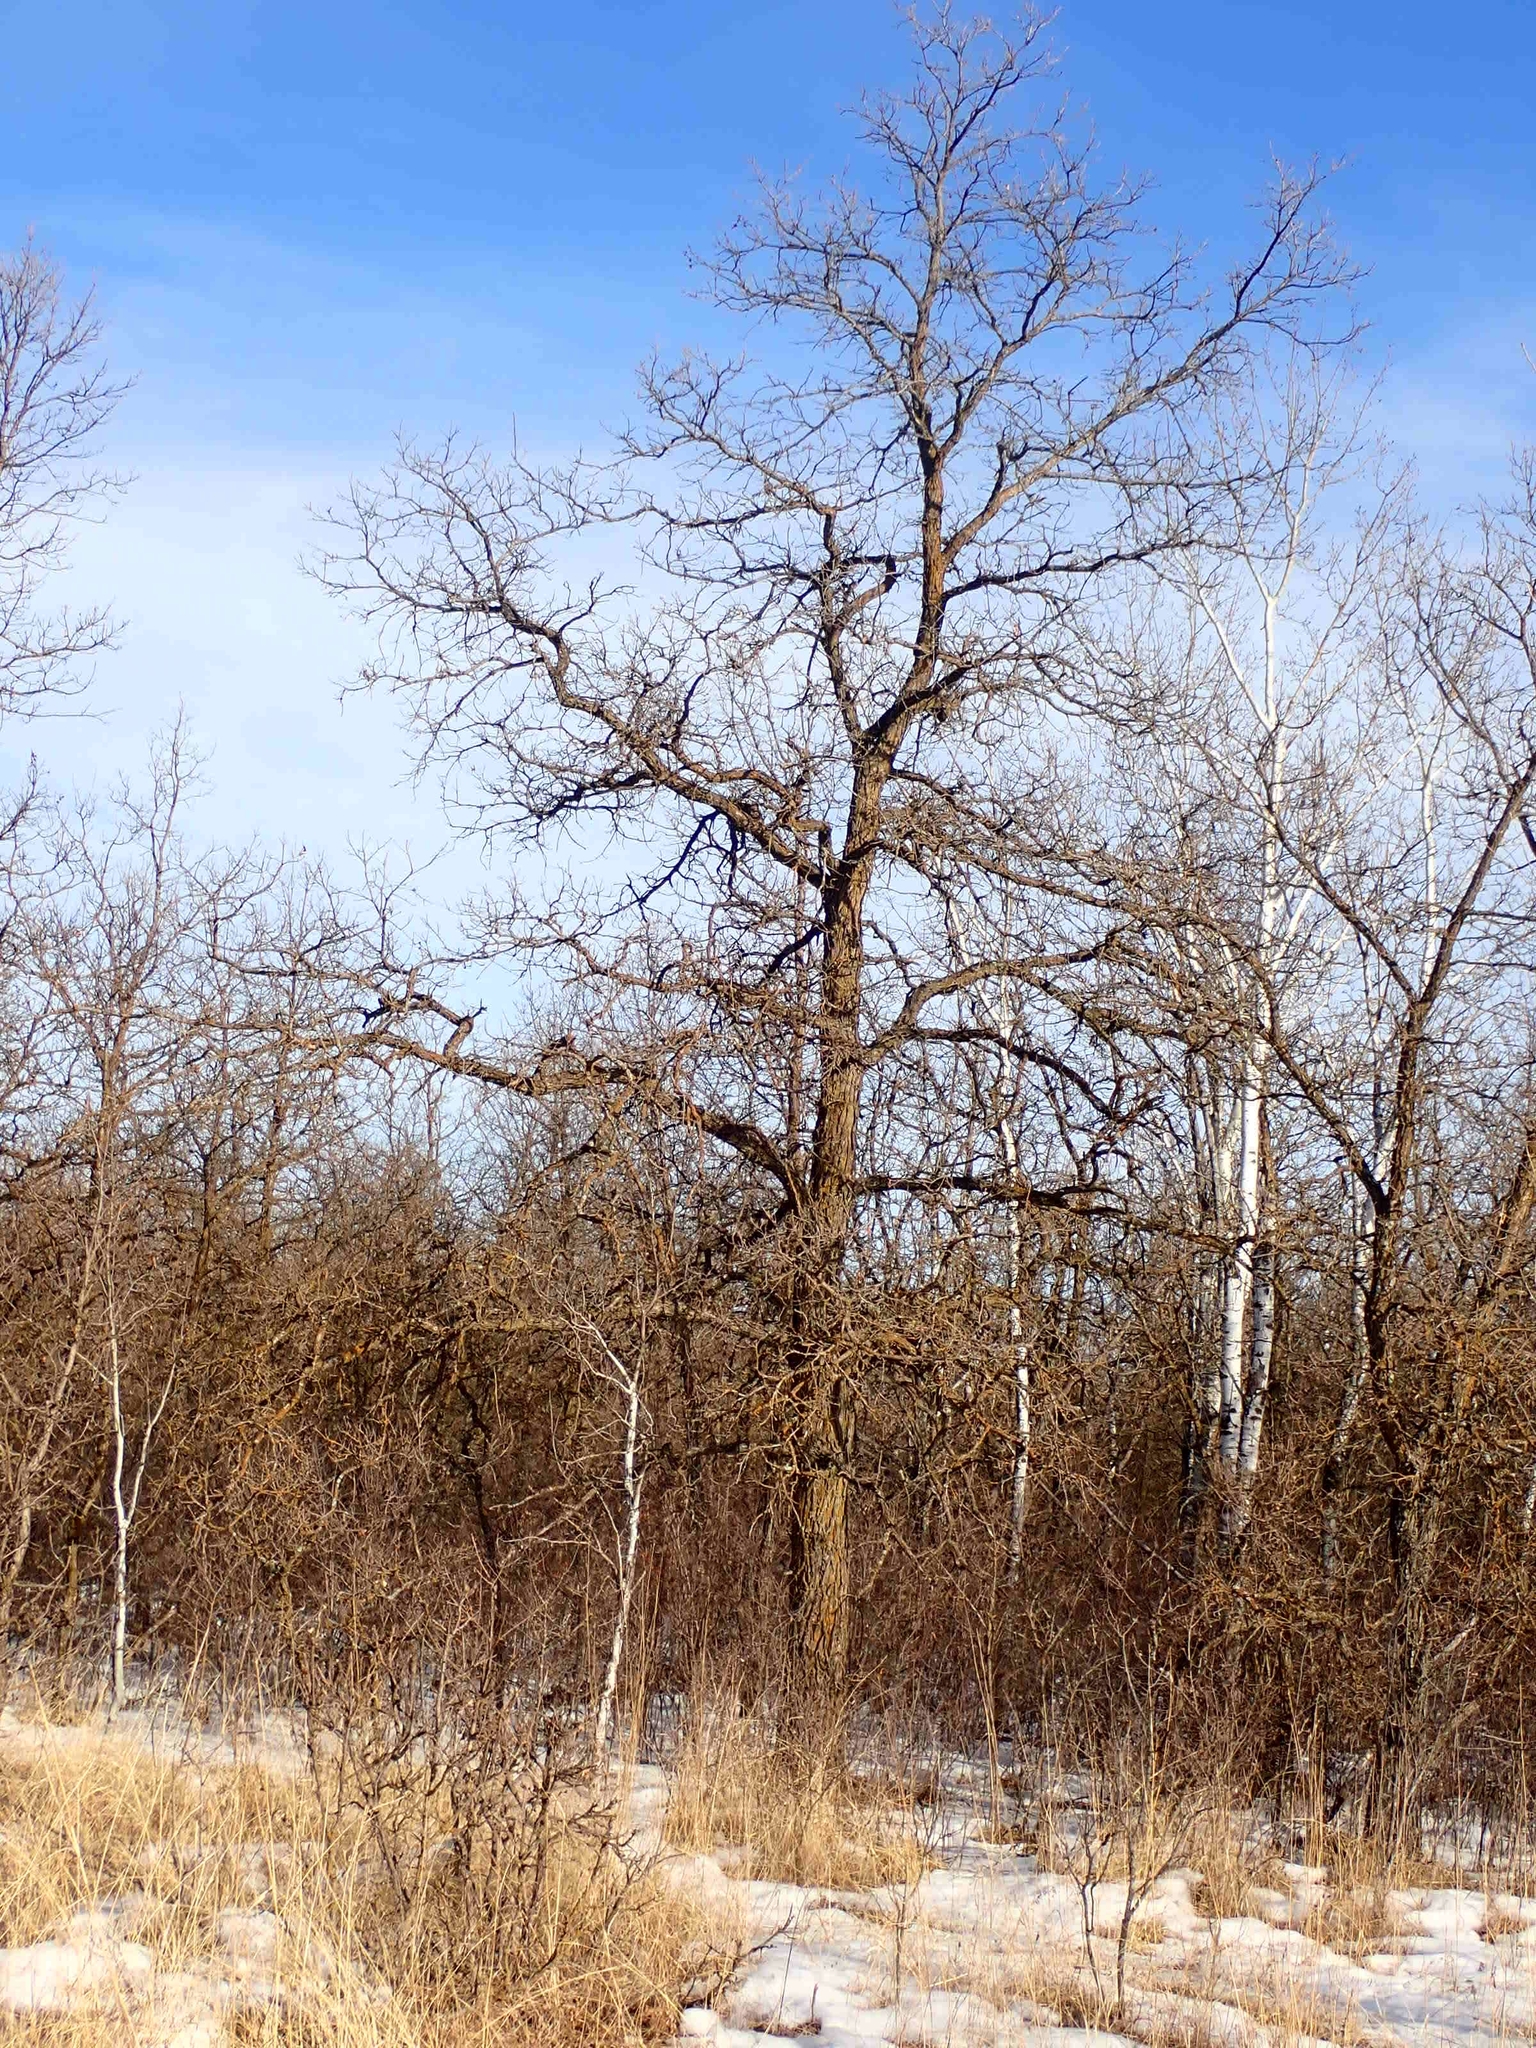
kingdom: Plantae
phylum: Tracheophyta
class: Magnoliopsida
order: Fagales
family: Fagaceae
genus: Quercus
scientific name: Quercus macrocarpa
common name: Bur oak
